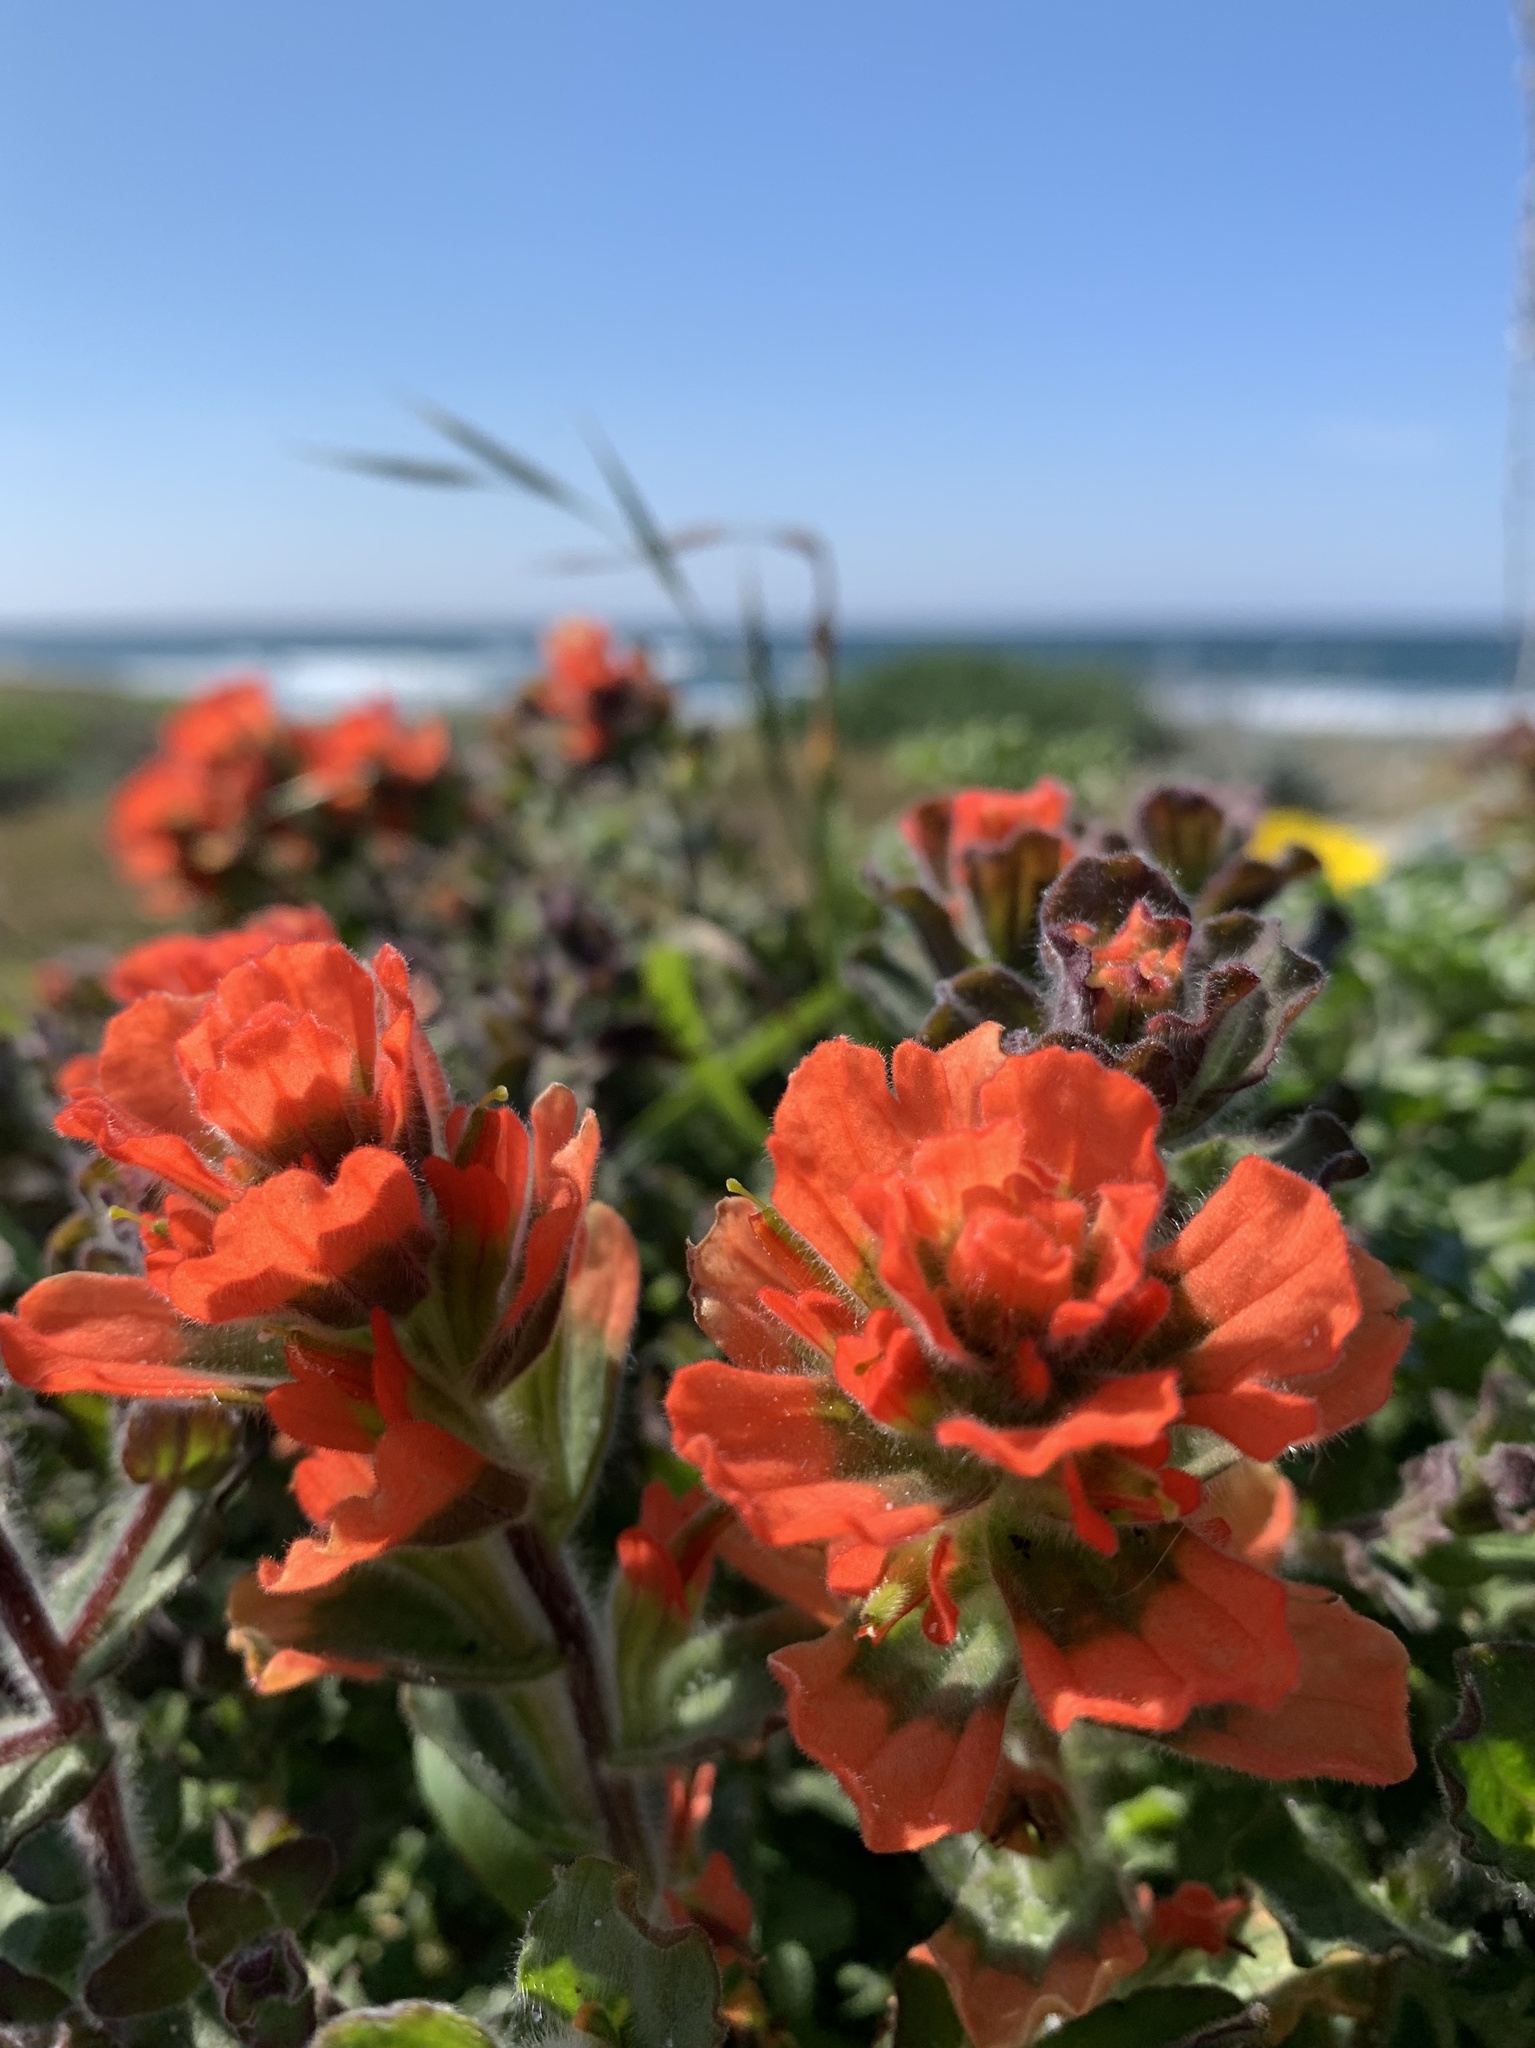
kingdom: Plantae
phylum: Tracheophyta
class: Magnoliopsida
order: Lamiales
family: Orobanchaceae
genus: Castilleja
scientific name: Castilleja latifolia
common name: Monterey indian paintbrush
